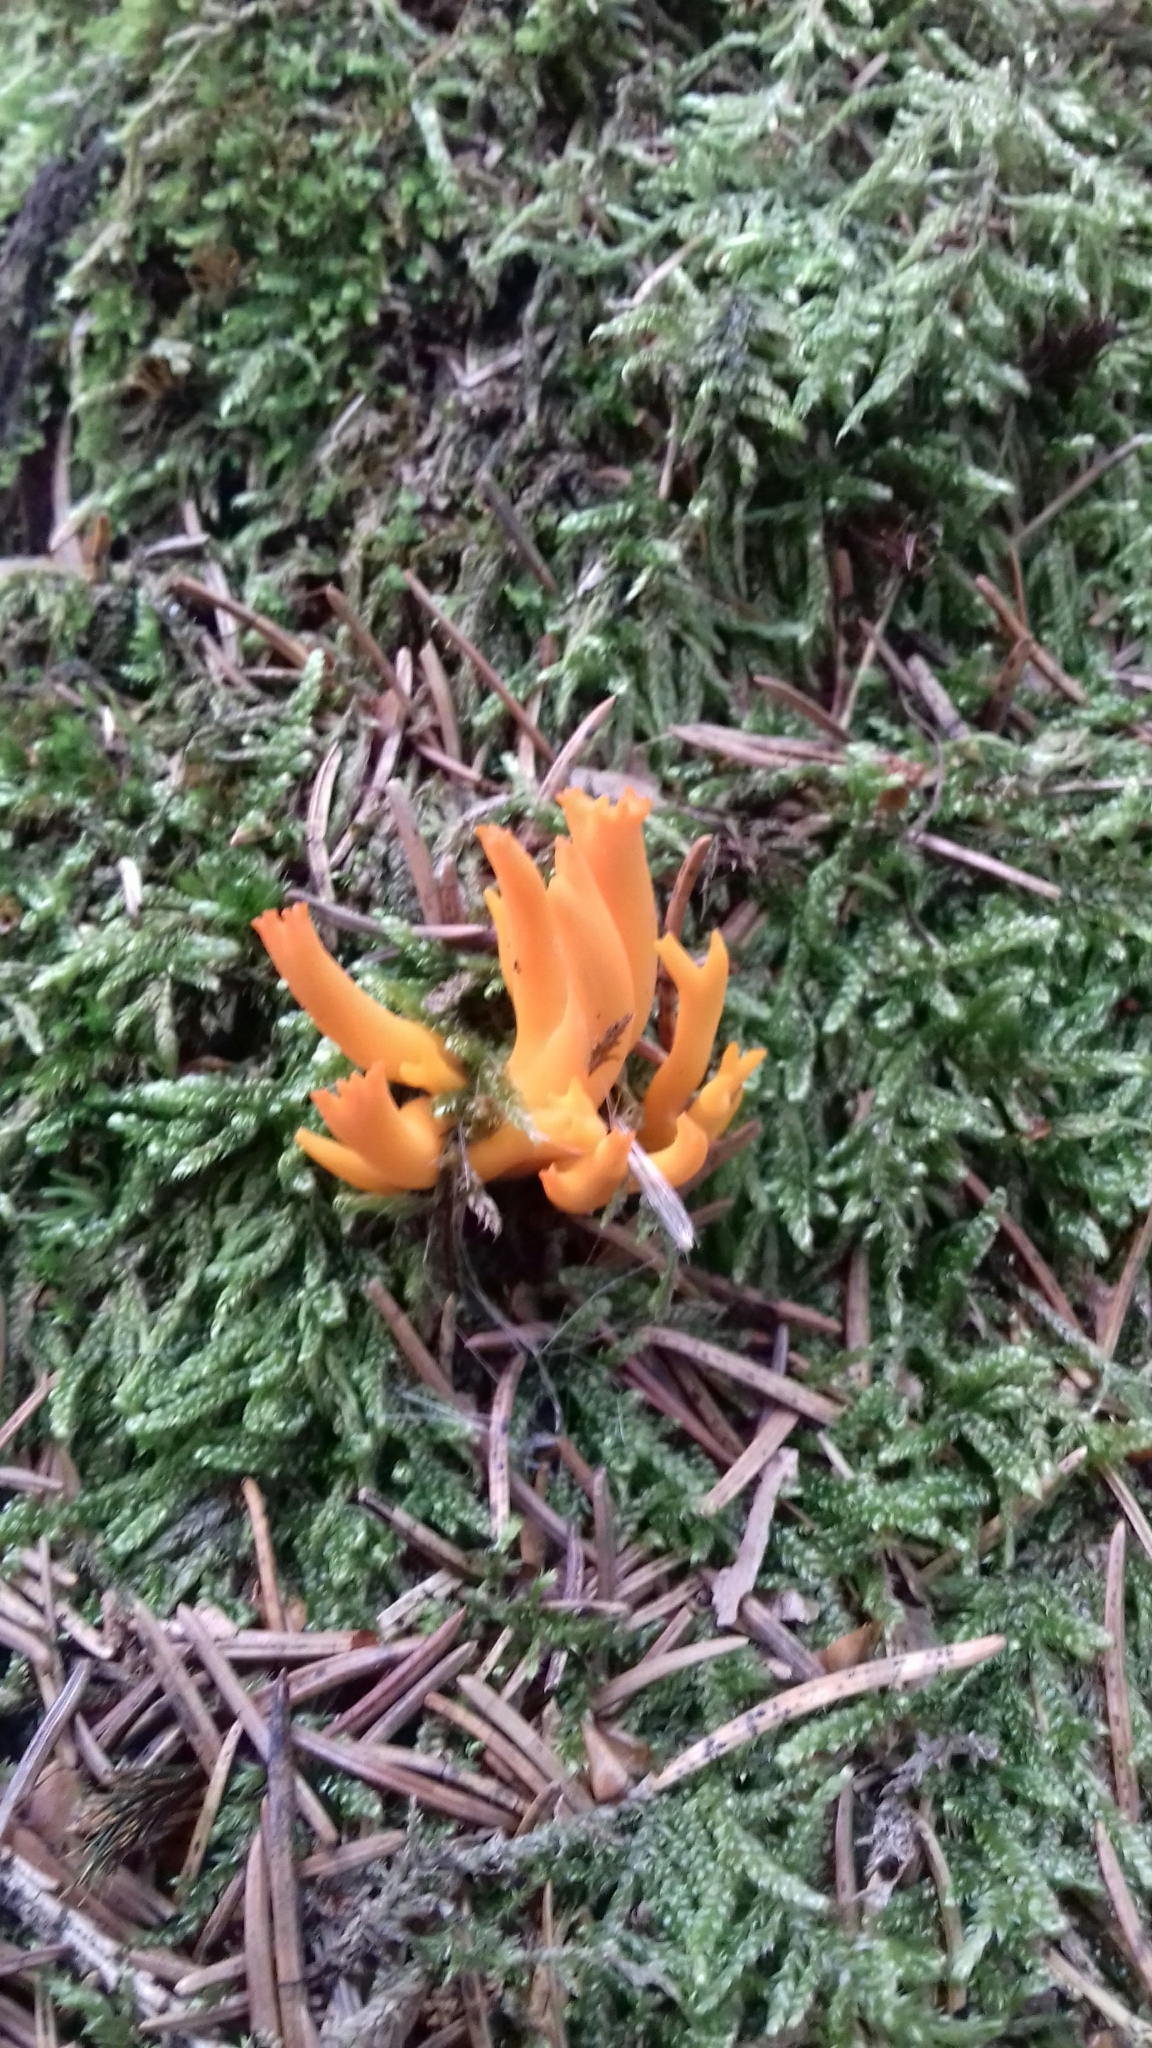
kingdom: Fungi
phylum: Basidiomycota
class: Dacrymycetes
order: Dacrymycetales
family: Dacrymycetaceae
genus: Calocera
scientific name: Calocera viscosa
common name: Yellow stagshorn
